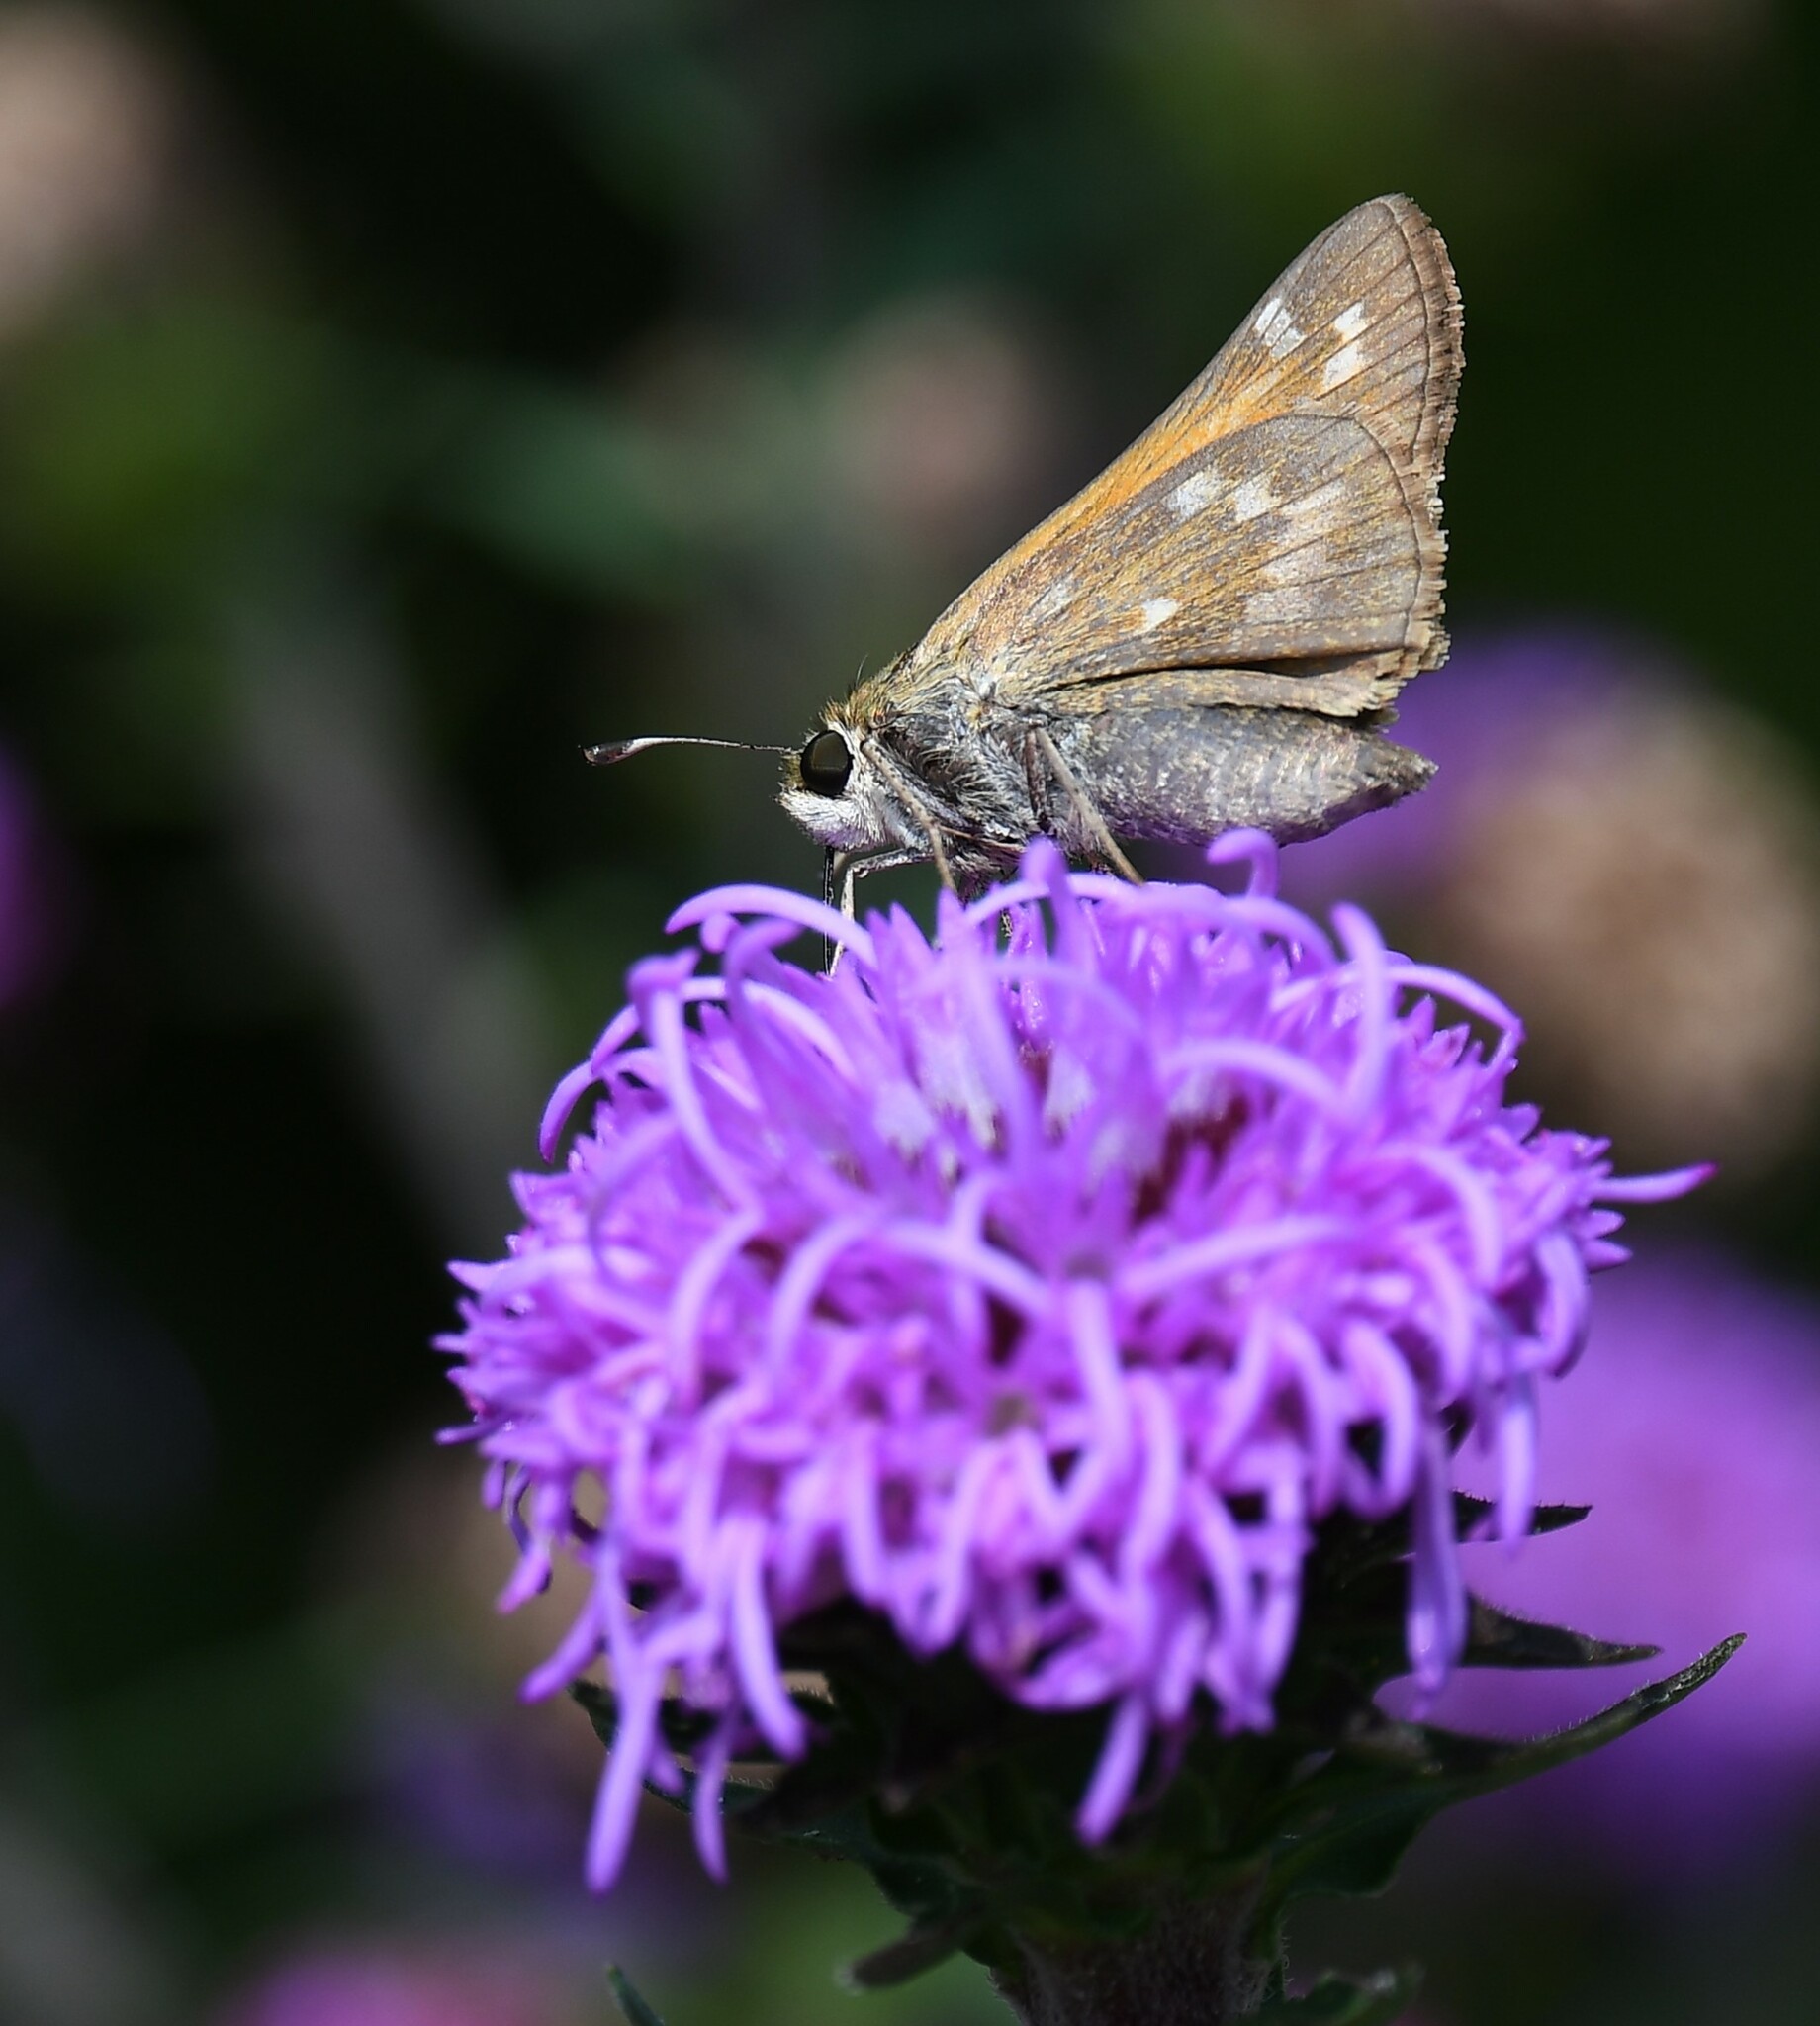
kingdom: Animalia
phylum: Arthropoda
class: Insecta
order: Lepidoptera
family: Hesperiidae
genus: Atalopedes
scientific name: Atalopedes
